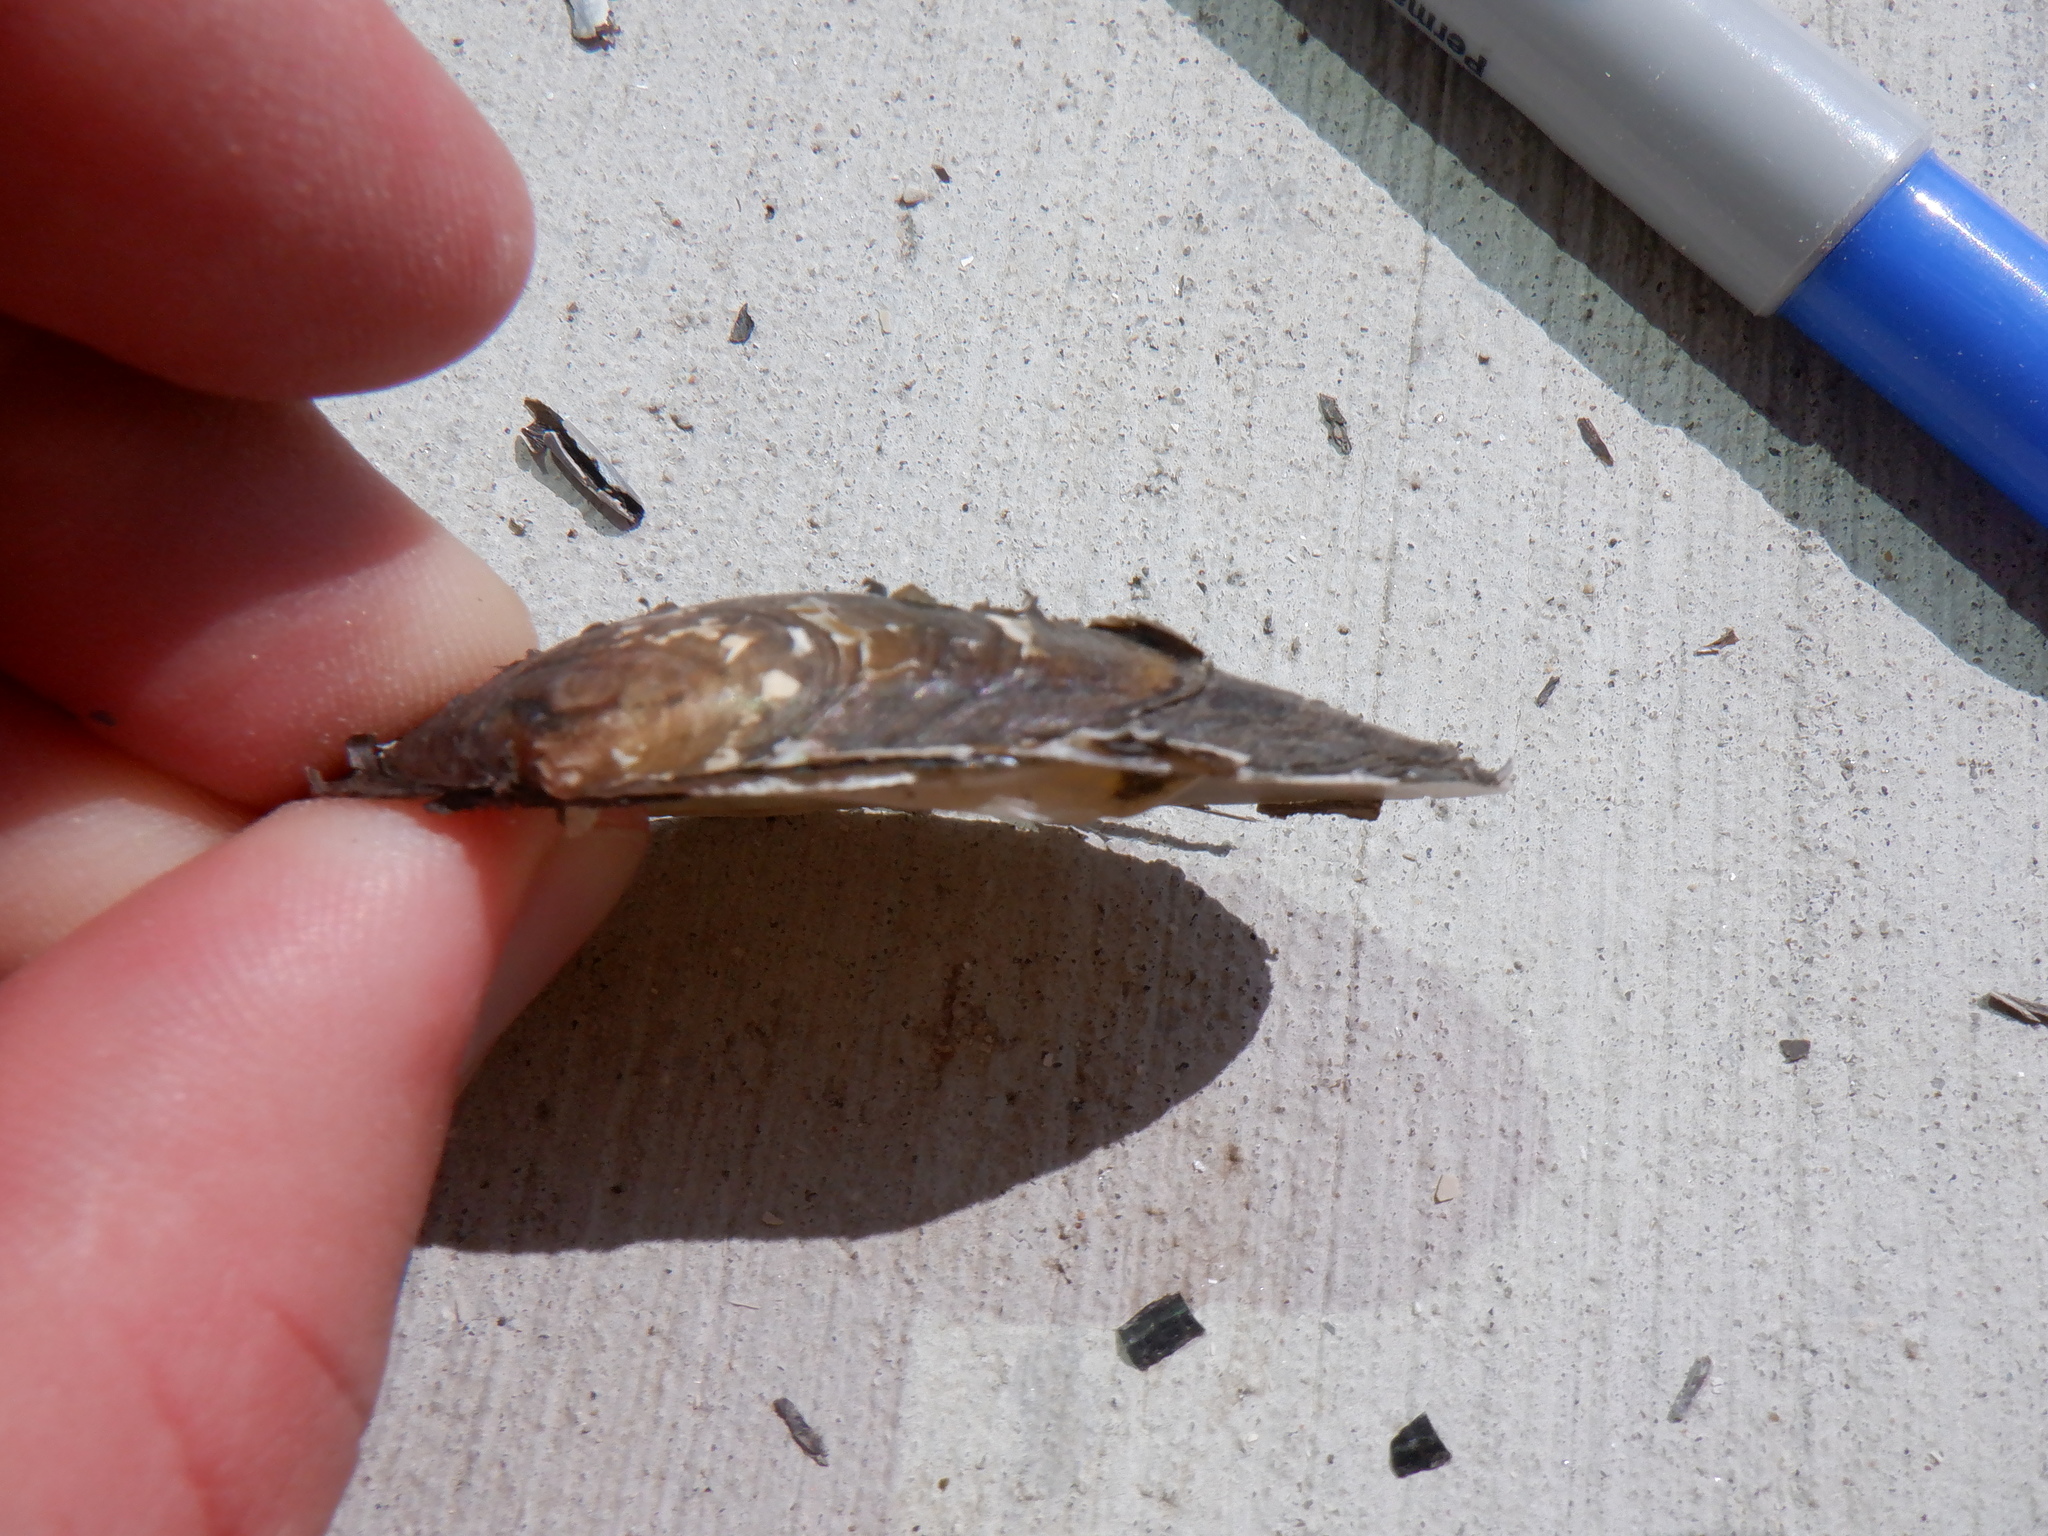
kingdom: Animalia
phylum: Mollusca
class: Bivalvia
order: Unionida
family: Unionidae
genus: Venustaconcha
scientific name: Venustaconcha ellipsiformis
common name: Ellipse
